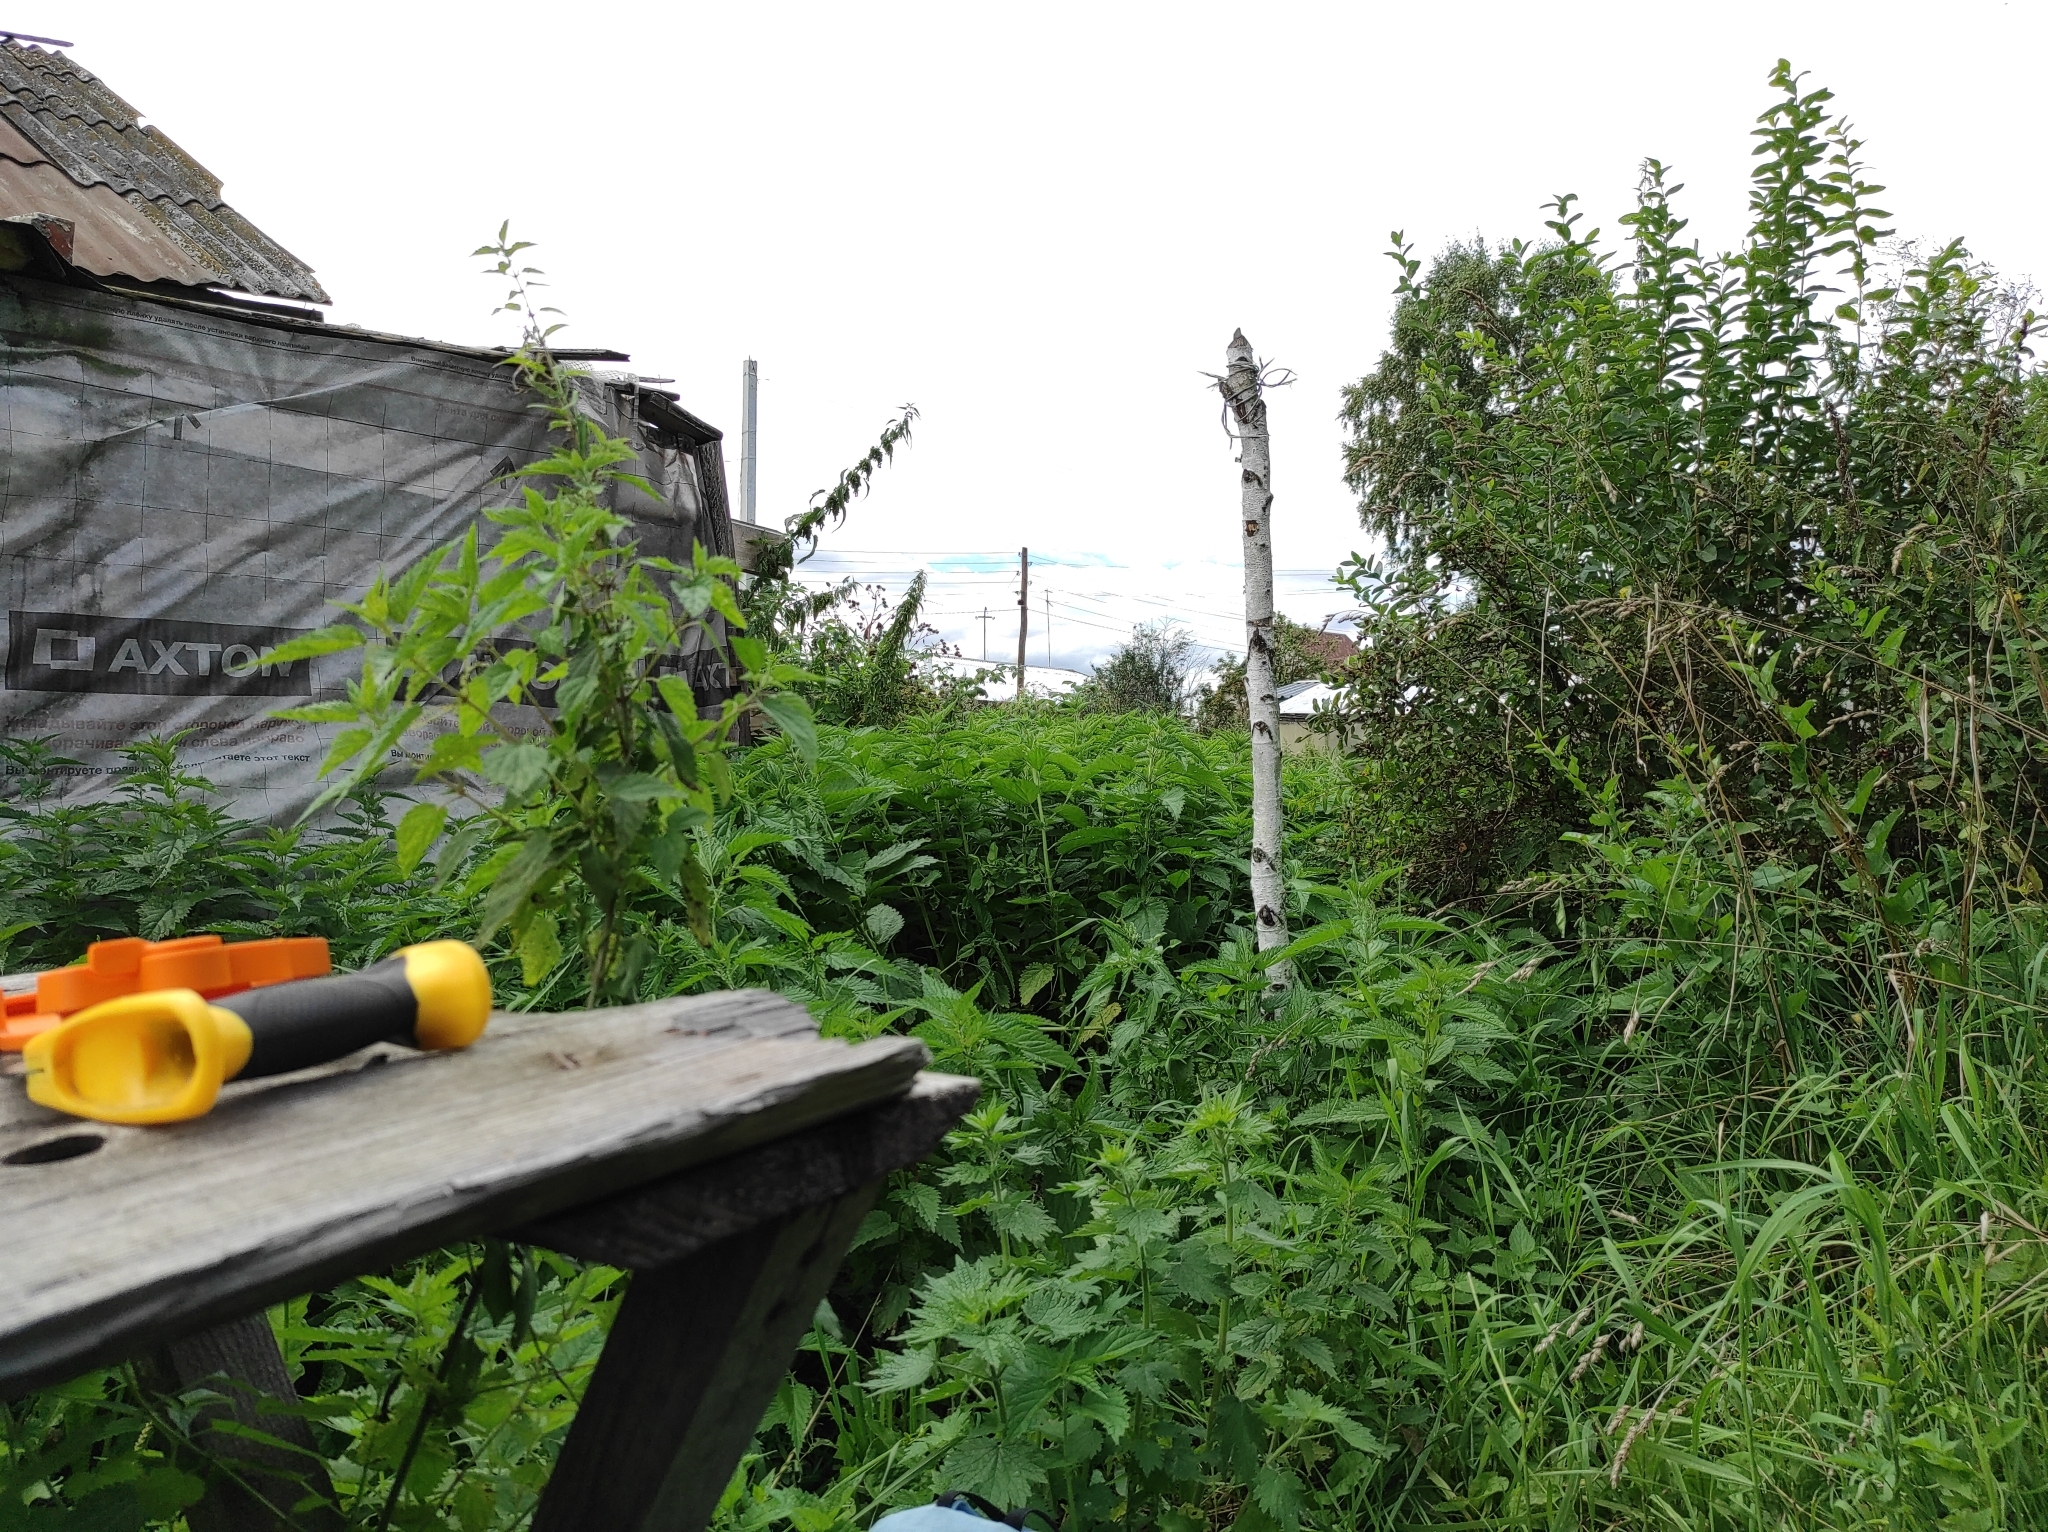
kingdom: Plantae
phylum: Tracheophyta
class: Magnoliopsida
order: Rosales
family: Urticaceae
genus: Urtica
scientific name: Urtica dioica
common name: Common nettle
